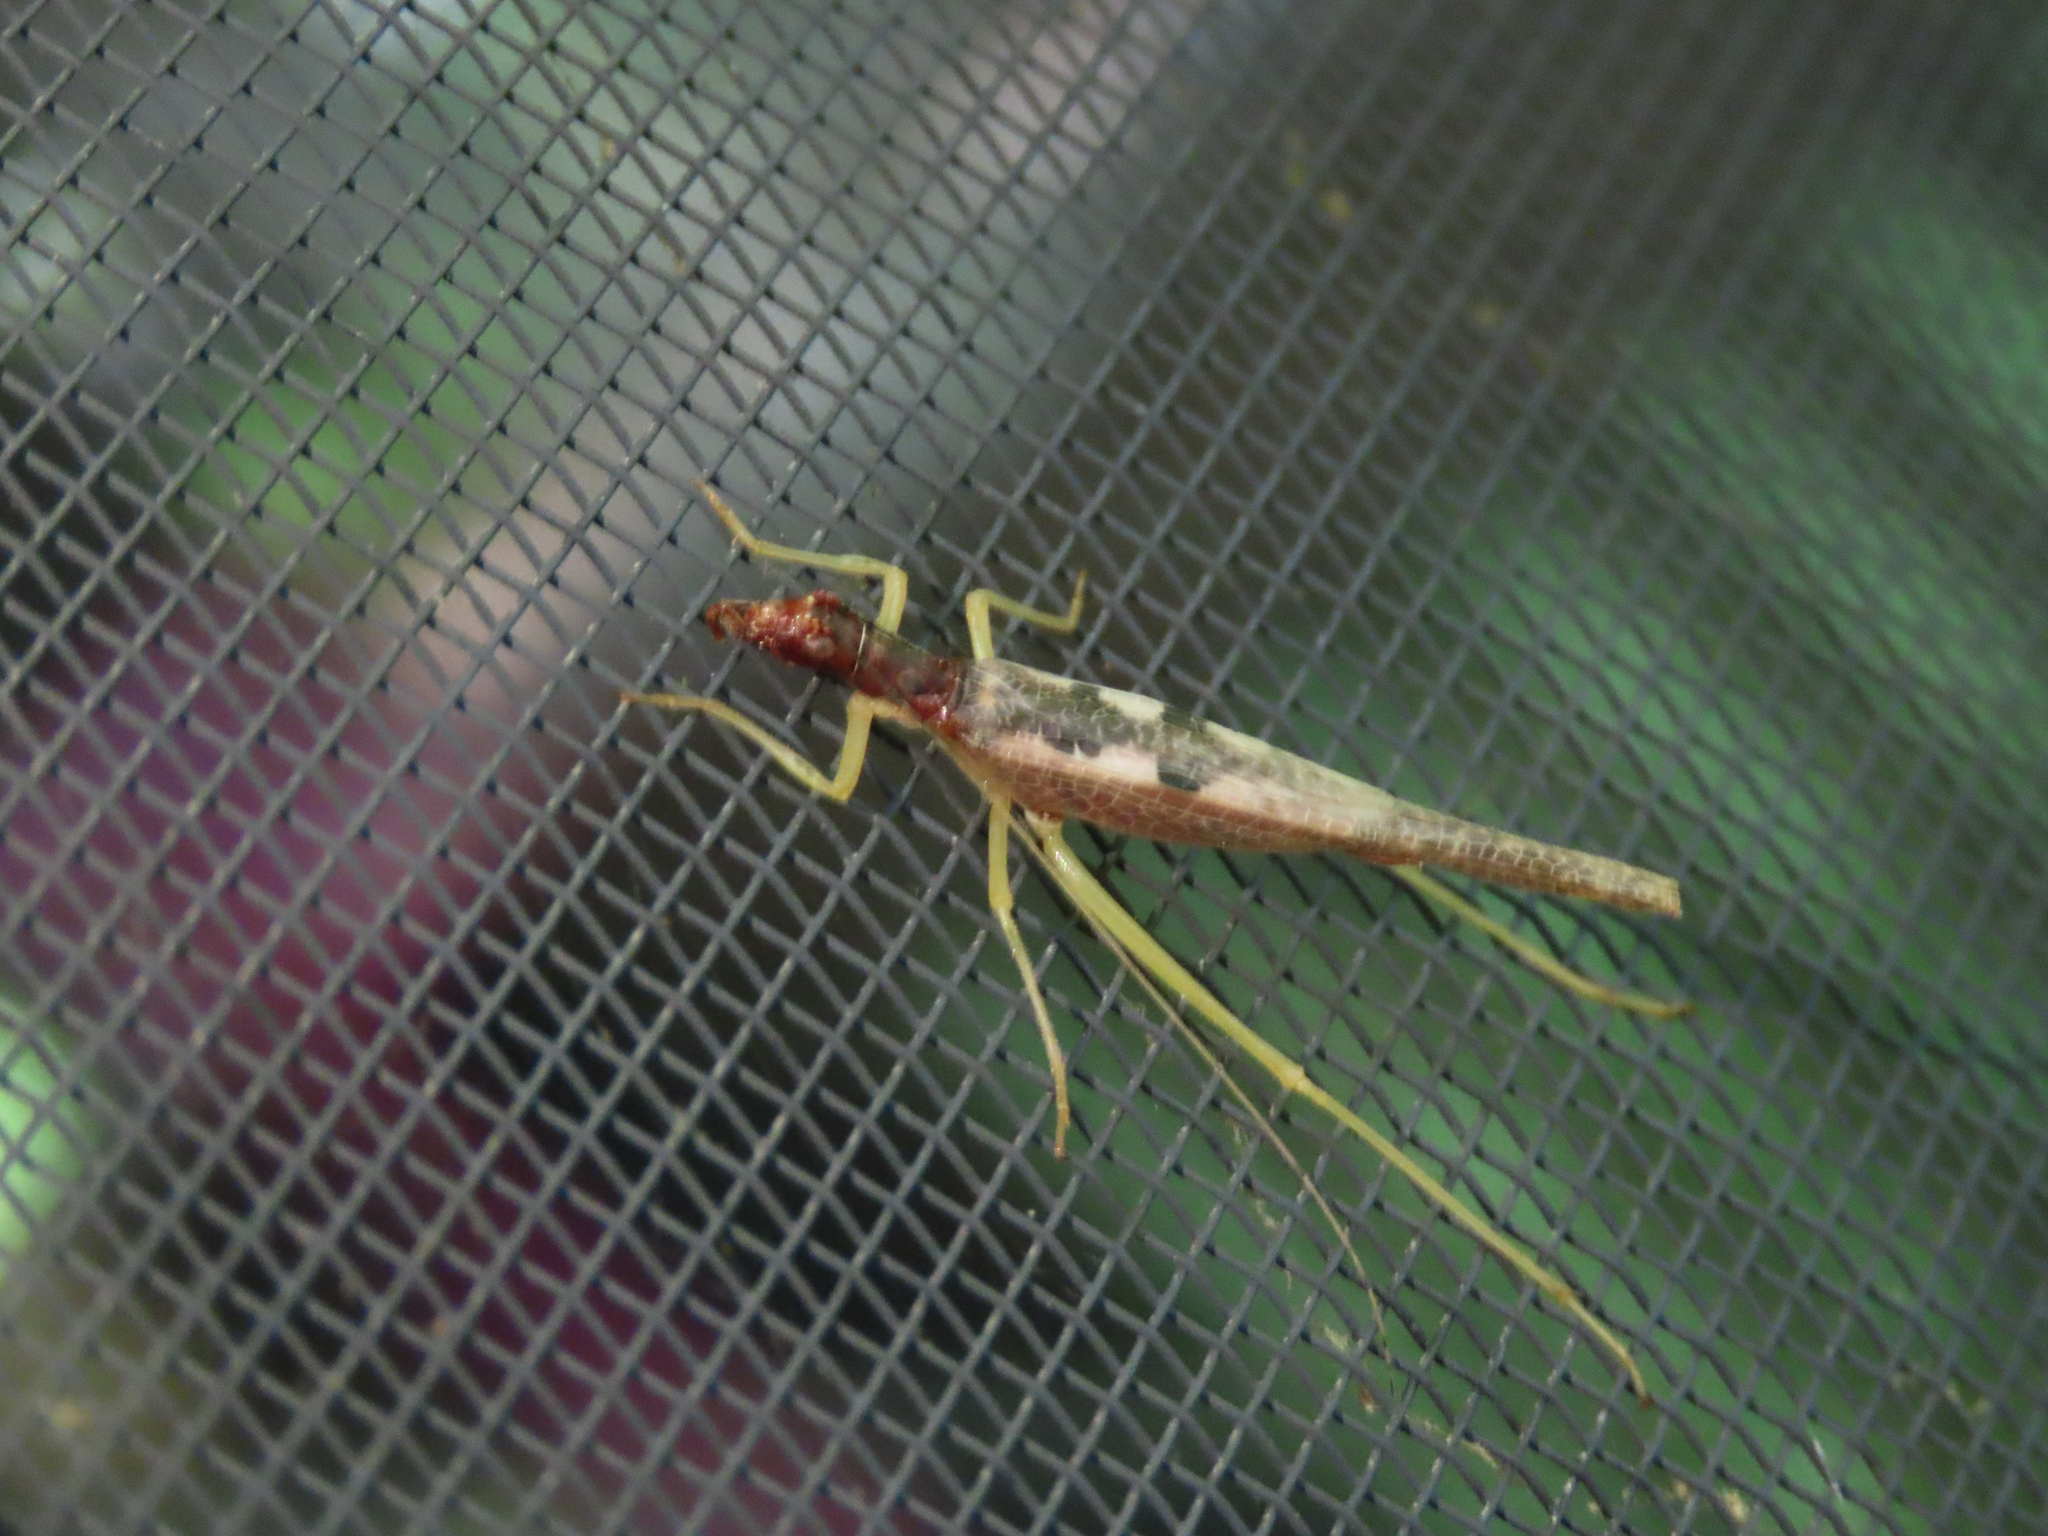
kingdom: Animalia
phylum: Arthropoda
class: Insecta
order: Orthoptera
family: Gryllidae
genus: Neoxabea
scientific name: Neoxabea bipunctata
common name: Two-spotted tree cricket
